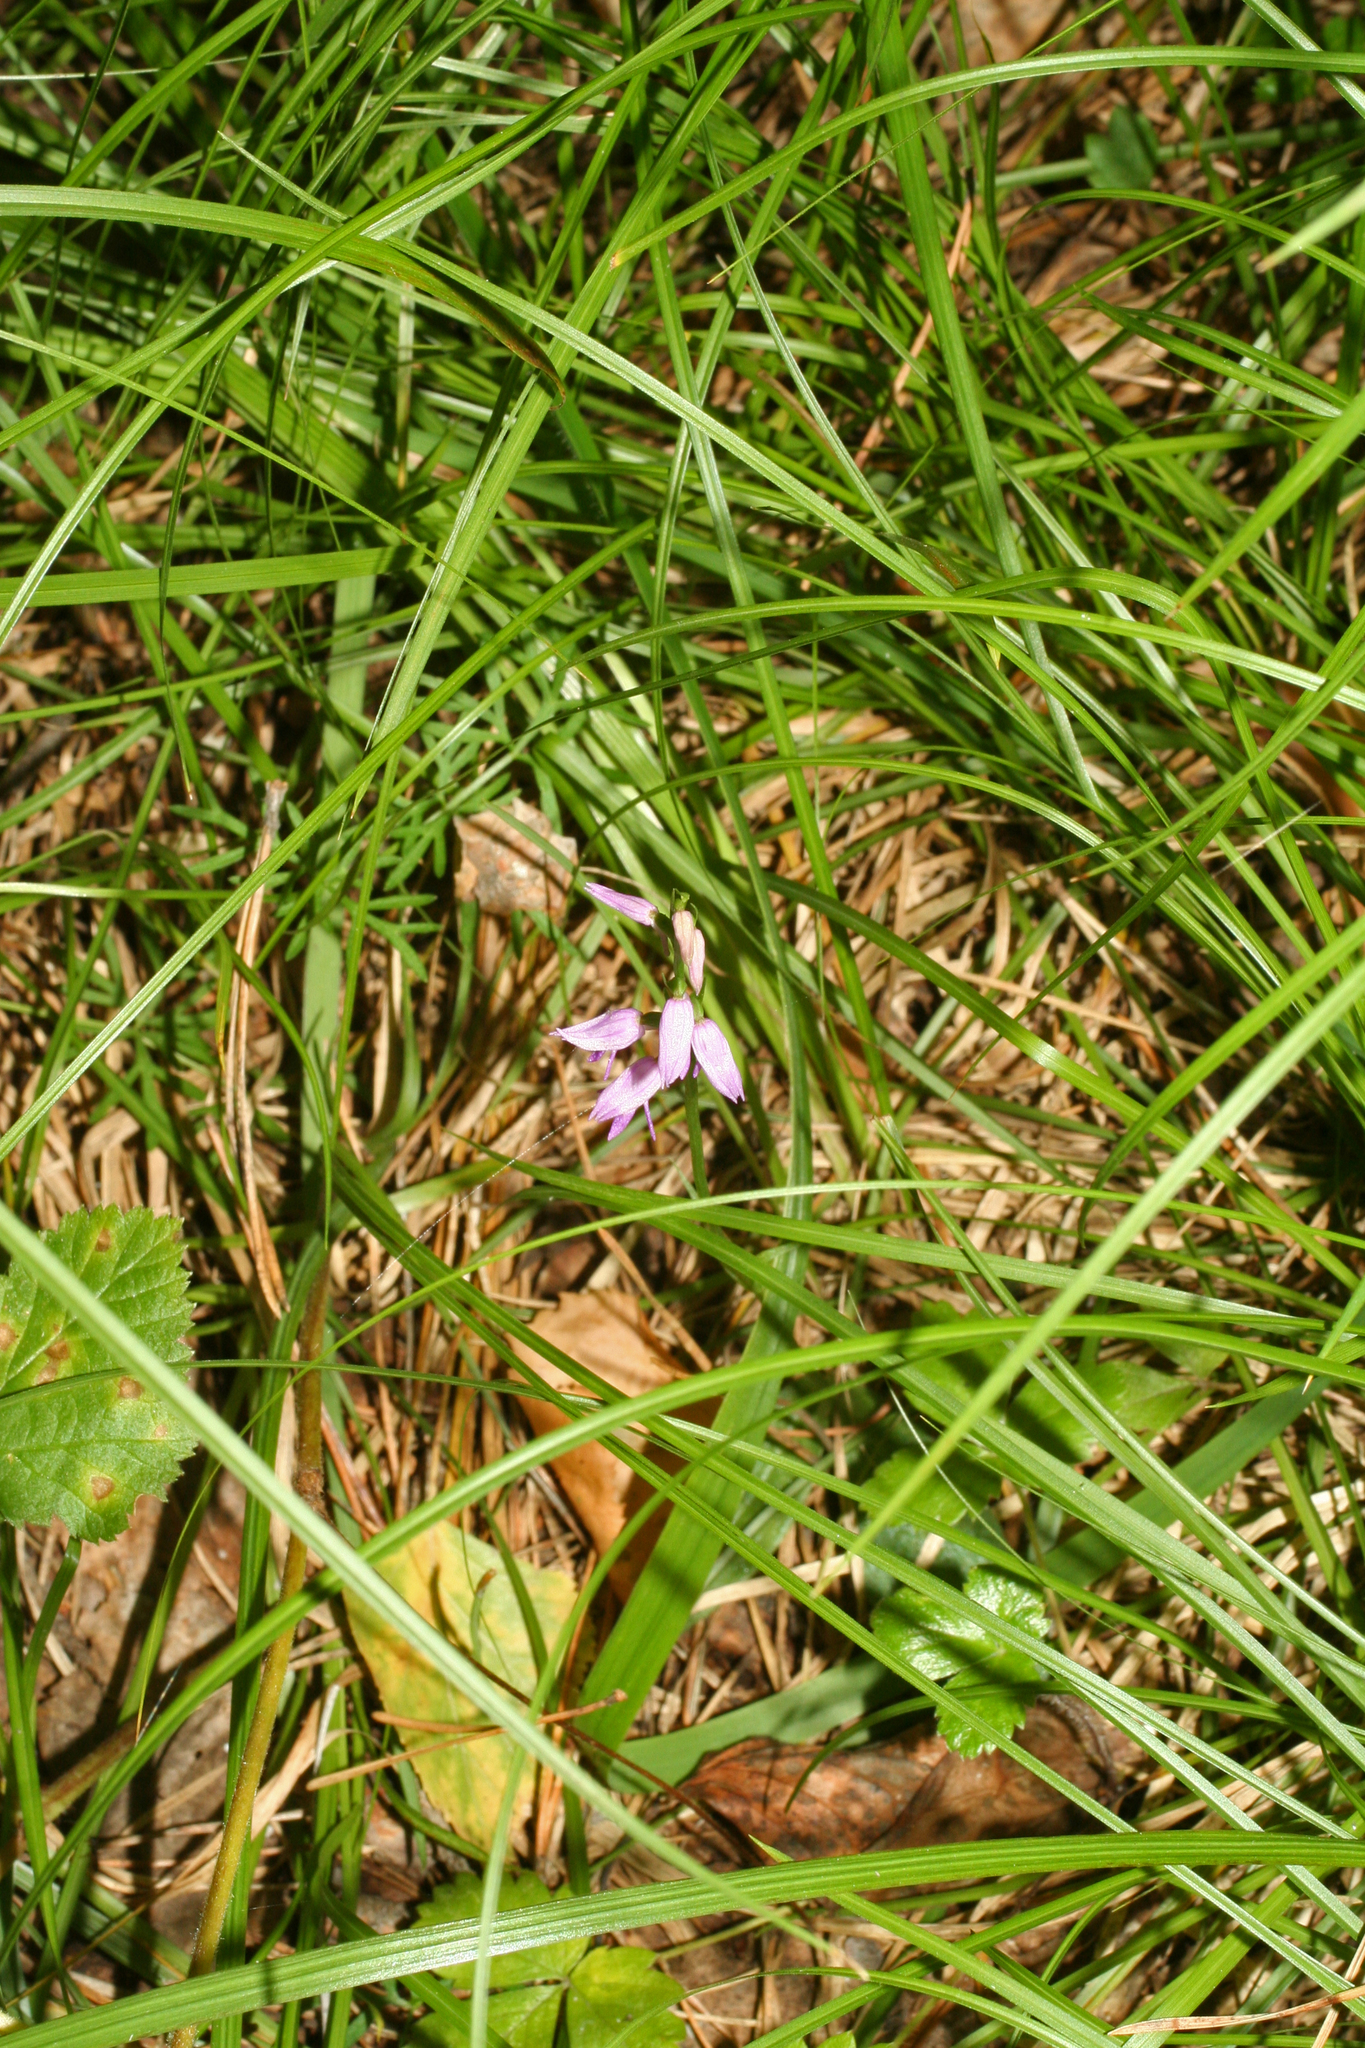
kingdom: Plantae
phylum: Tracheophyta
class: Liliopsida
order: Asparagales
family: Orchidaceae
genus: Hemipilia
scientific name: Hemipilia cucullata
